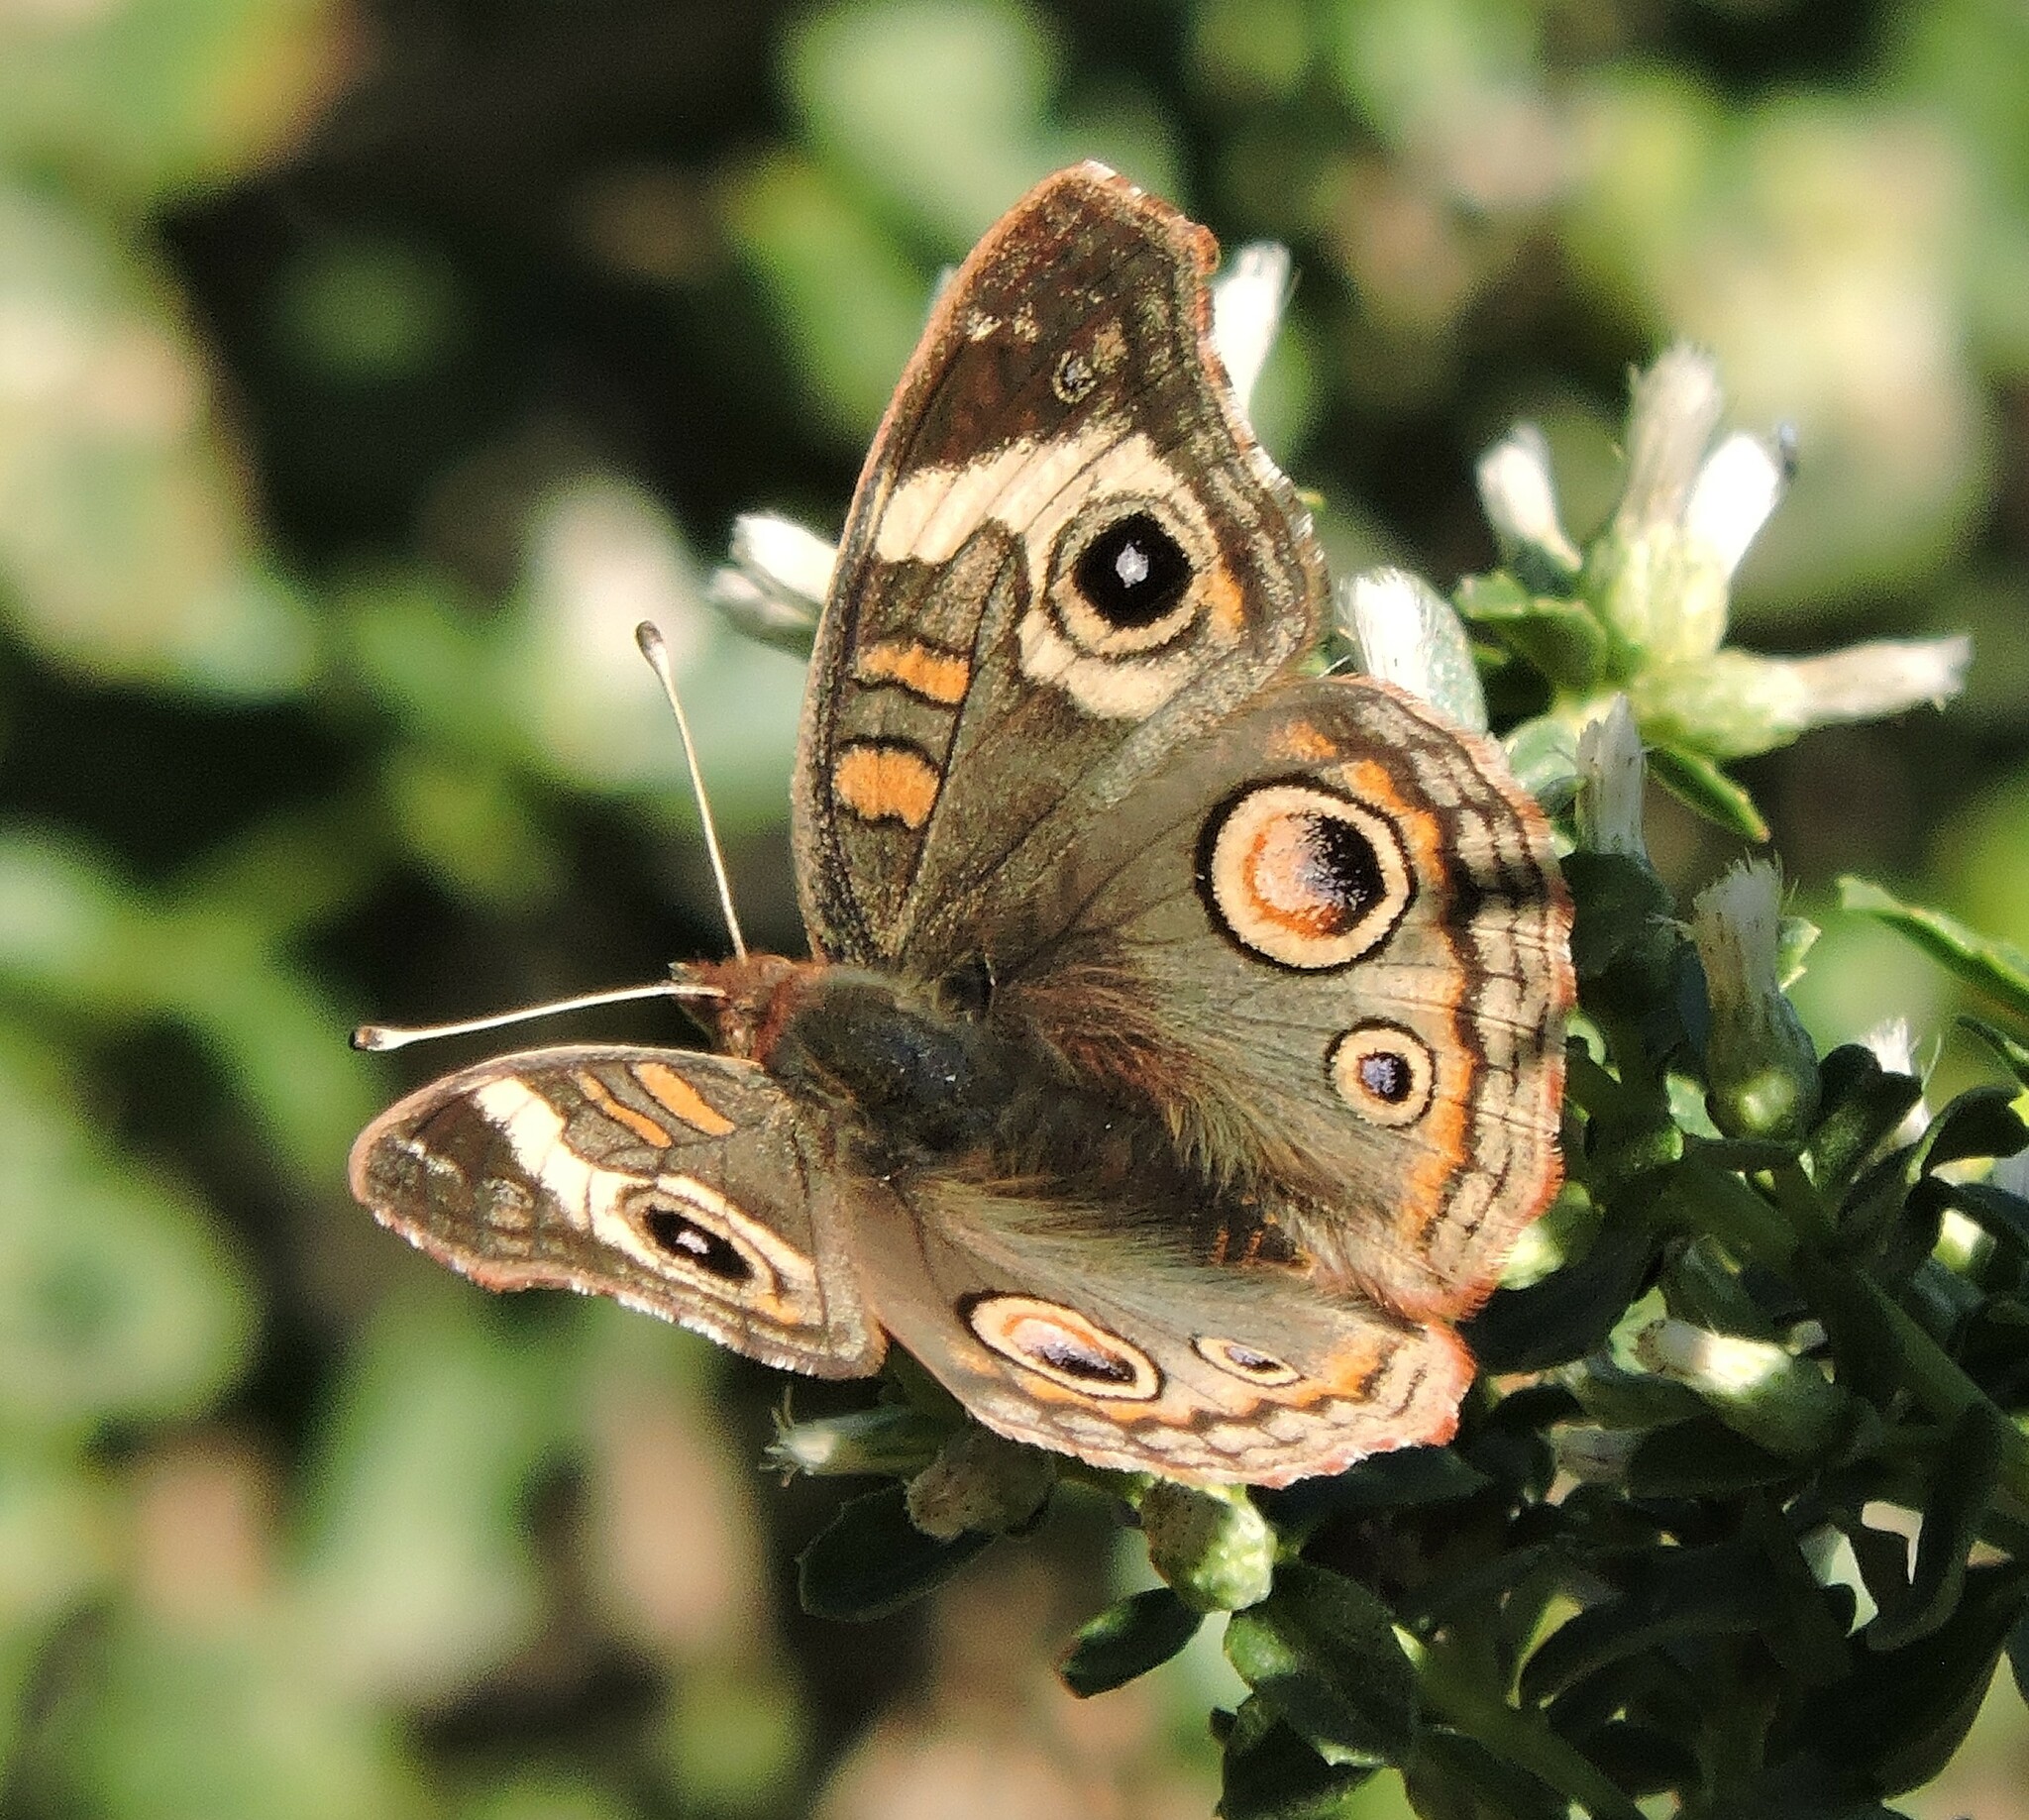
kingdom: Animalia
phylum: Arthropoda
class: Insecta
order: Lepidoptera
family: Nymphalidae
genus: Junonia
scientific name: Junonia grisea
